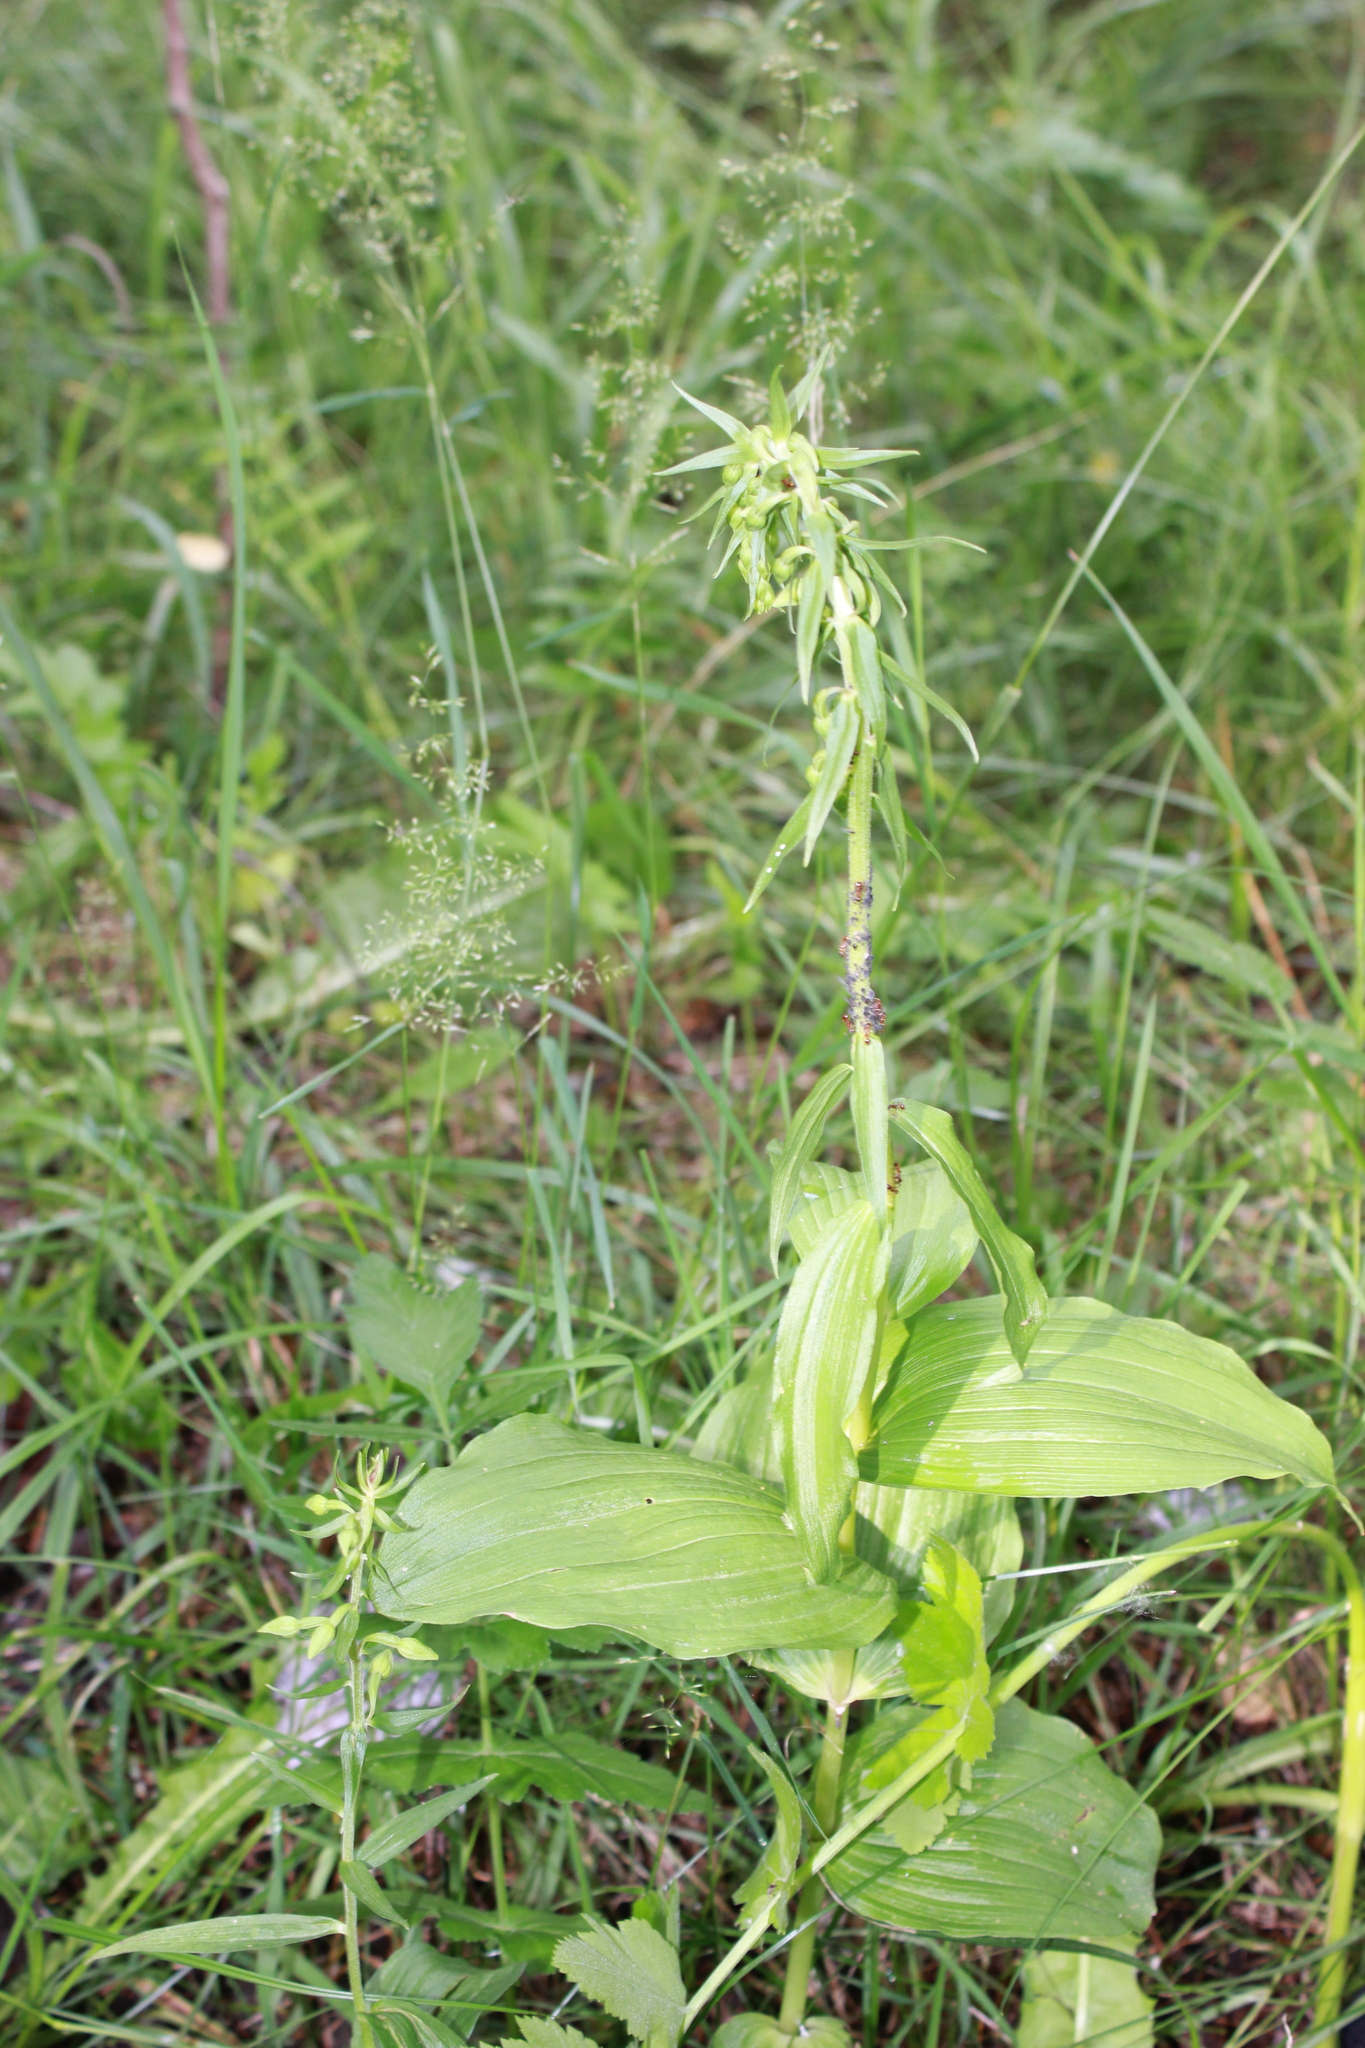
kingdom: Plantae
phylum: Tracheophyta
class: Liliopsida
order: Asparagales
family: Orchidaceae
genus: Epipactis
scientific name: Epipactis helleborine
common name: Broad-leaved helleborine
